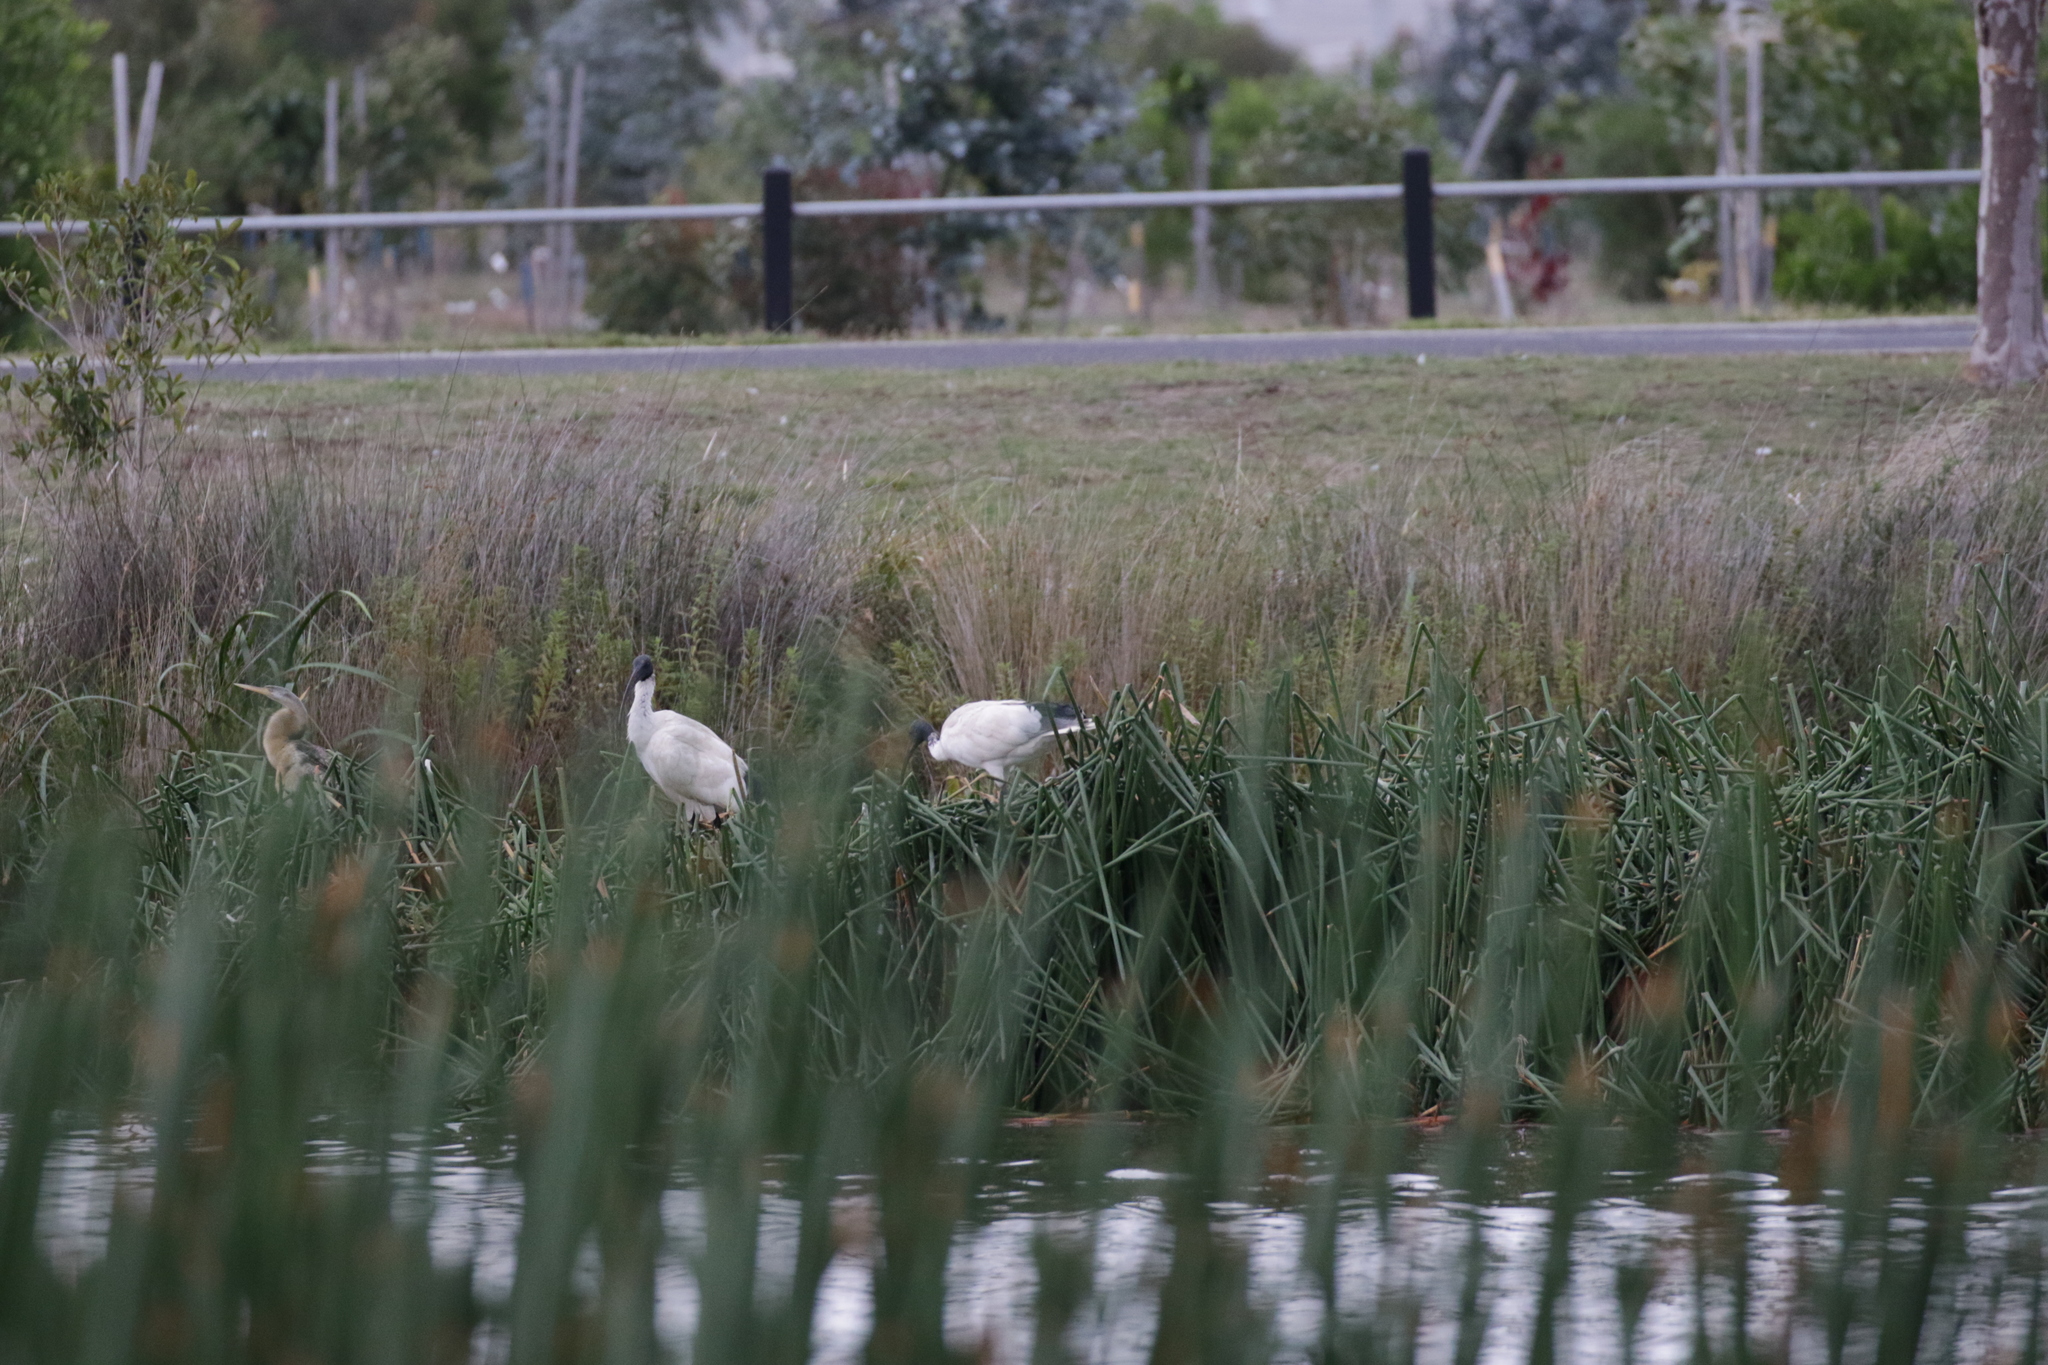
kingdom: Animalia
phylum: Chordata
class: Aves
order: Pelecaniformes
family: Threskiornithidae
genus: Threskiornis
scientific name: Threskiornis molucca
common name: Australian white ibis
